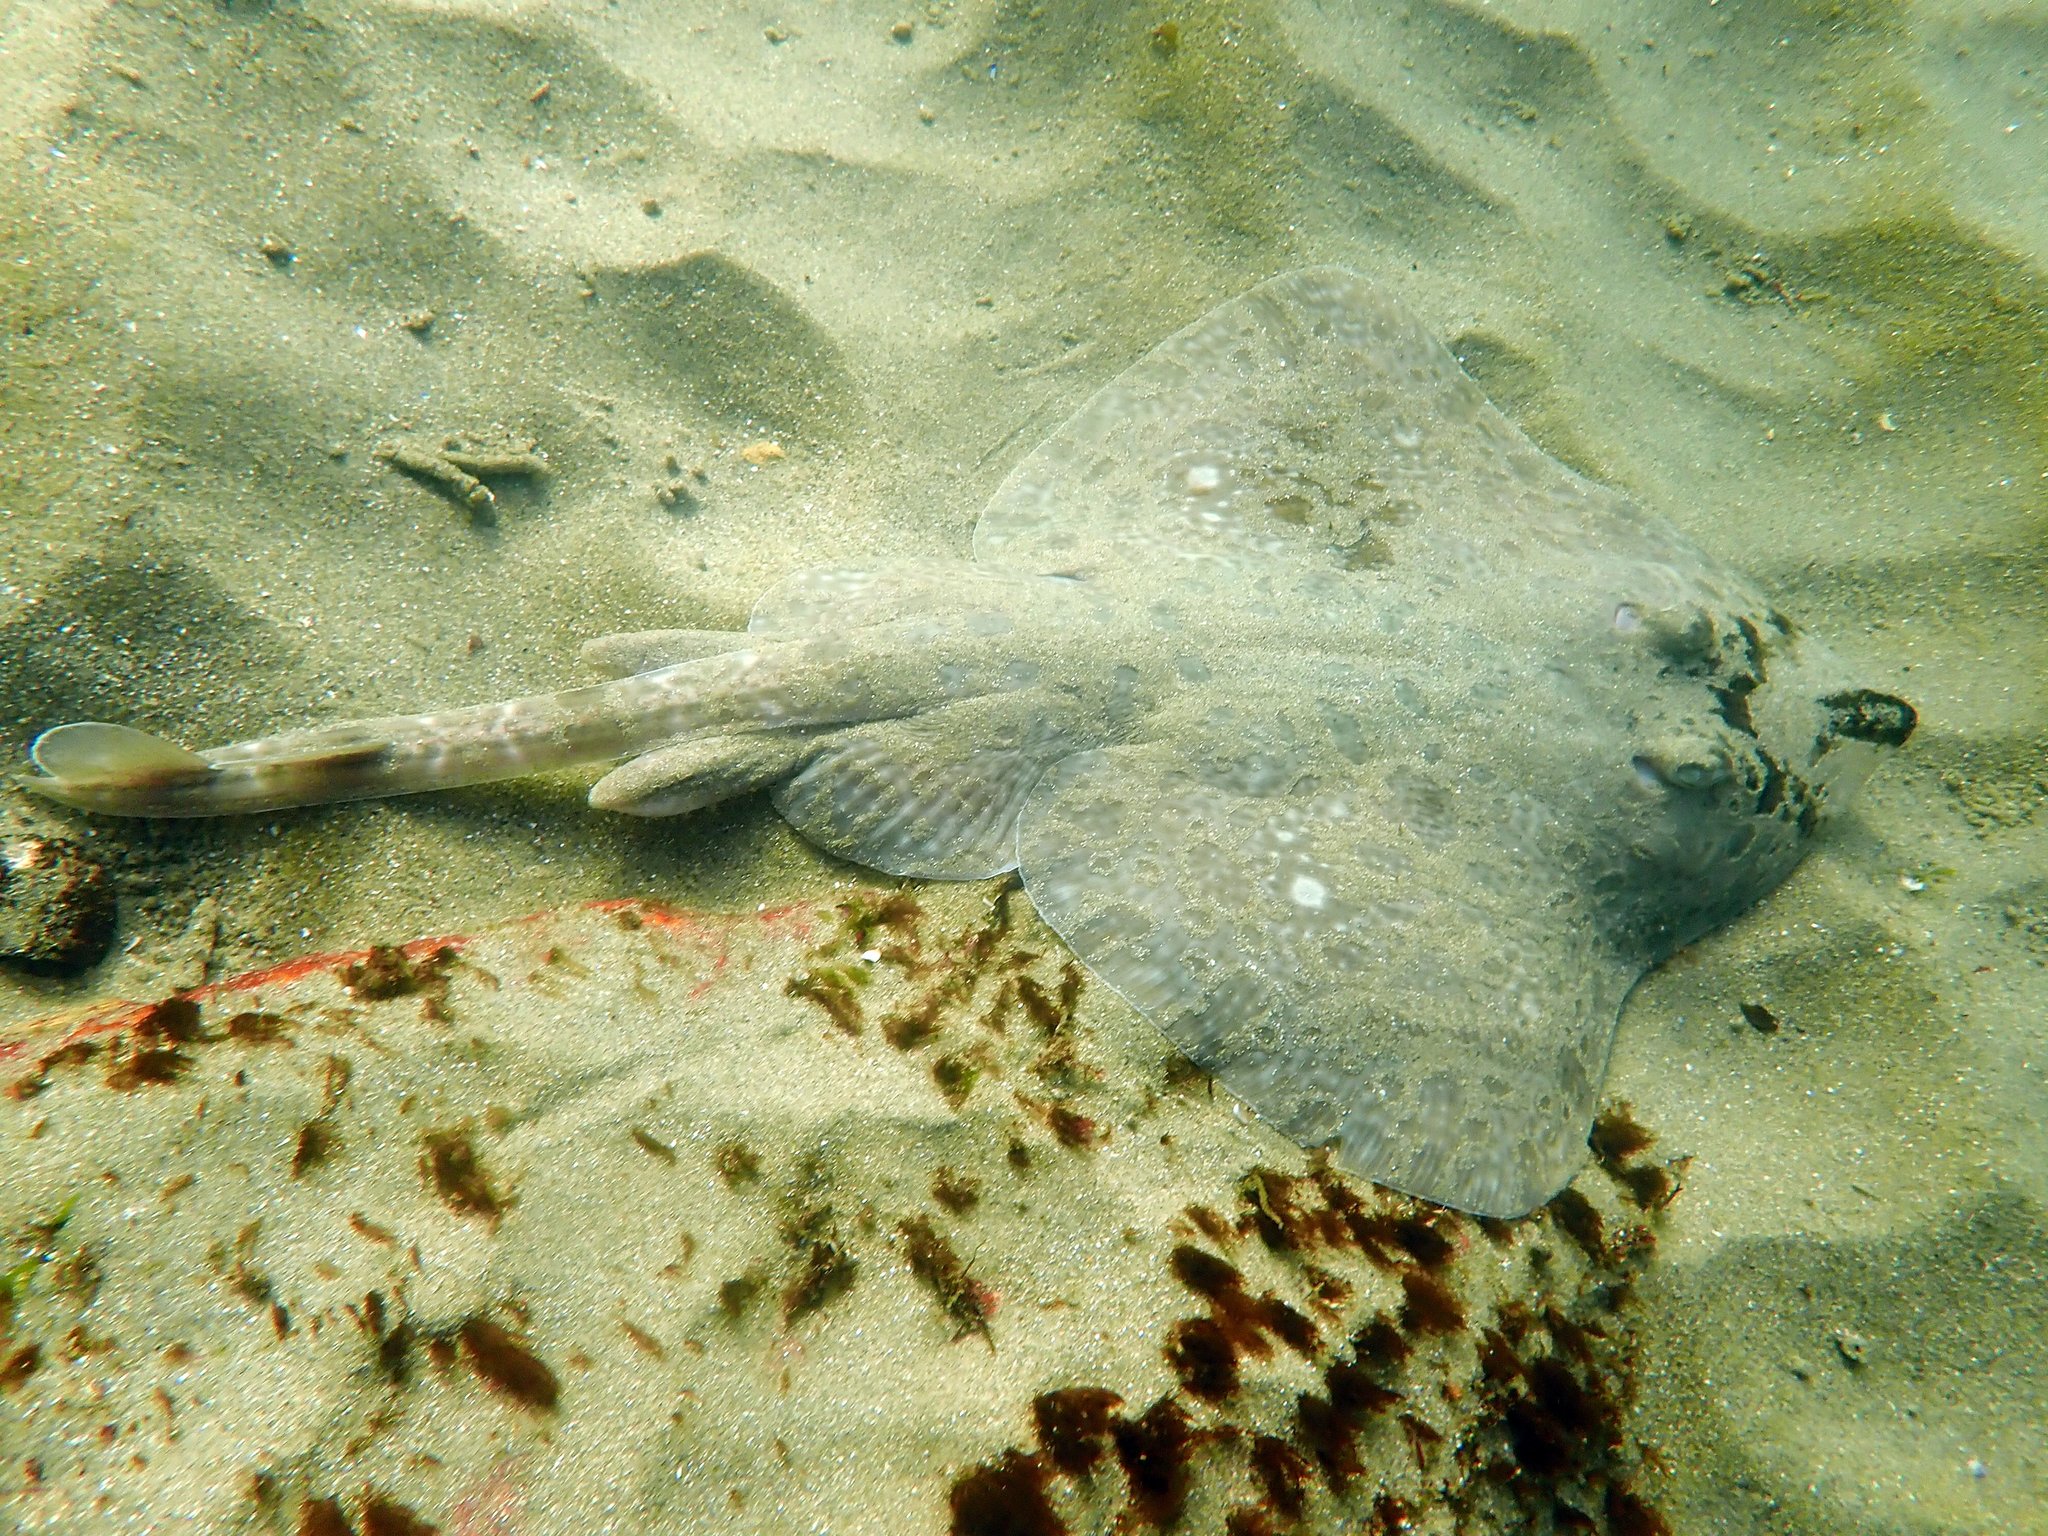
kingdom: Animalia
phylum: Chordata
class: Elasmobranchii
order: Rajiformes
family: Rajidae
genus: Dentiraja
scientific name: Dentiraja lemprieri
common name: Thornback skate
